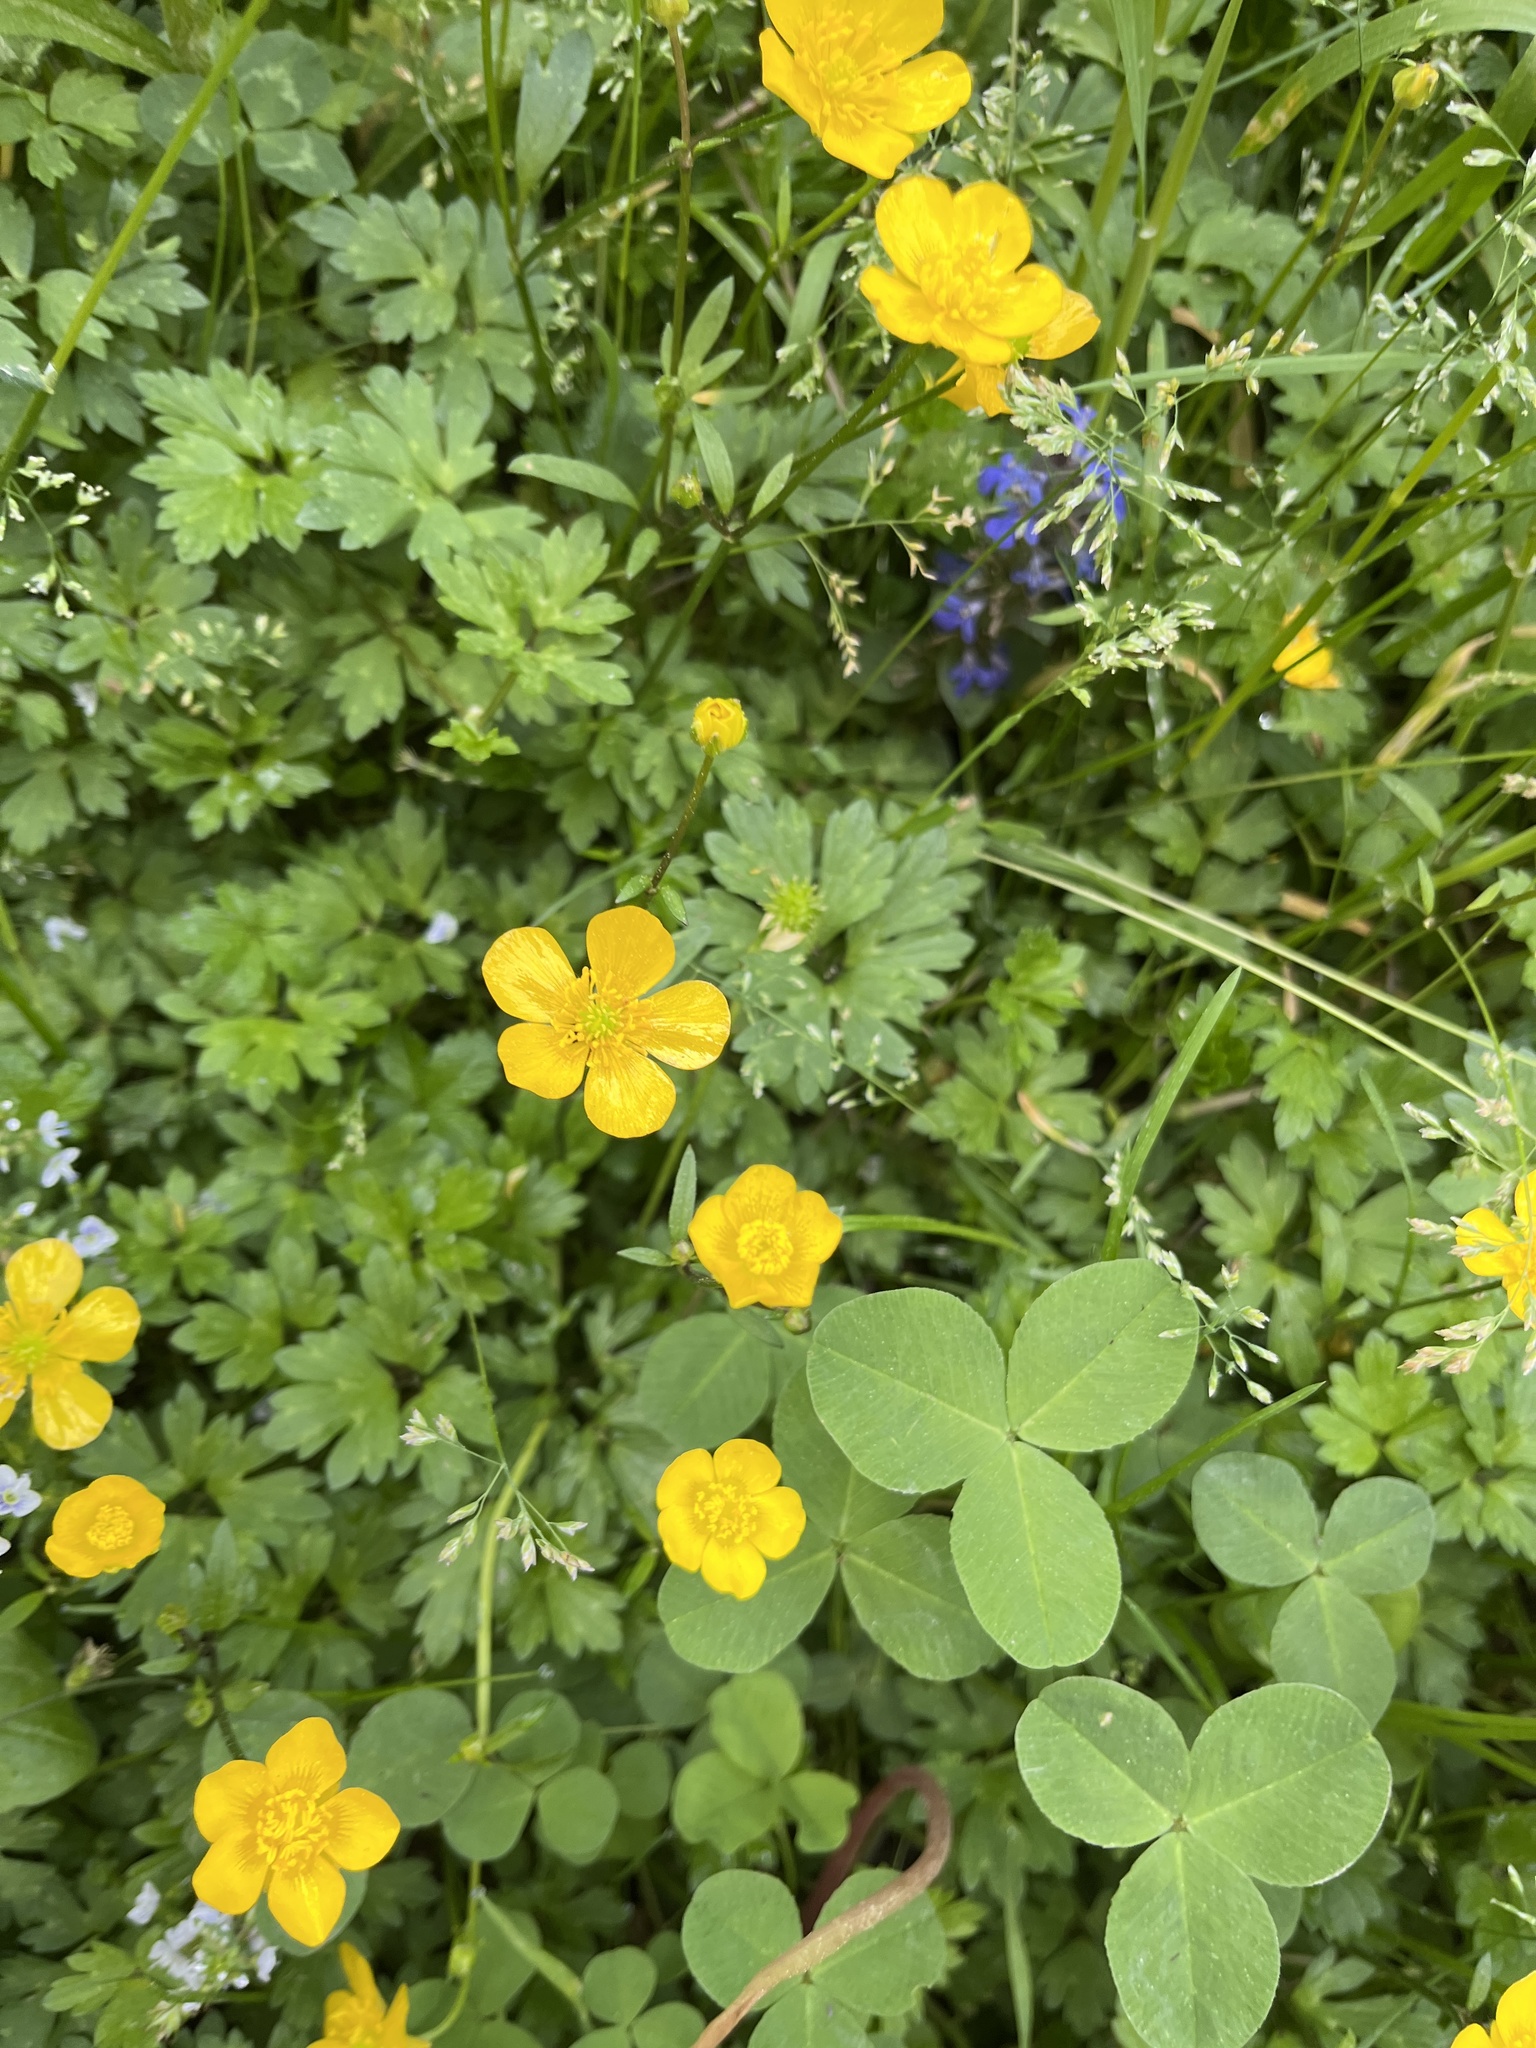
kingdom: Plantae
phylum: Tracheophyta
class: Magnoliopsida
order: Ranunculales
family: Ranunculaceae
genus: Ranunculus
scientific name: Ranunculus repens
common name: Creeping buttercup
